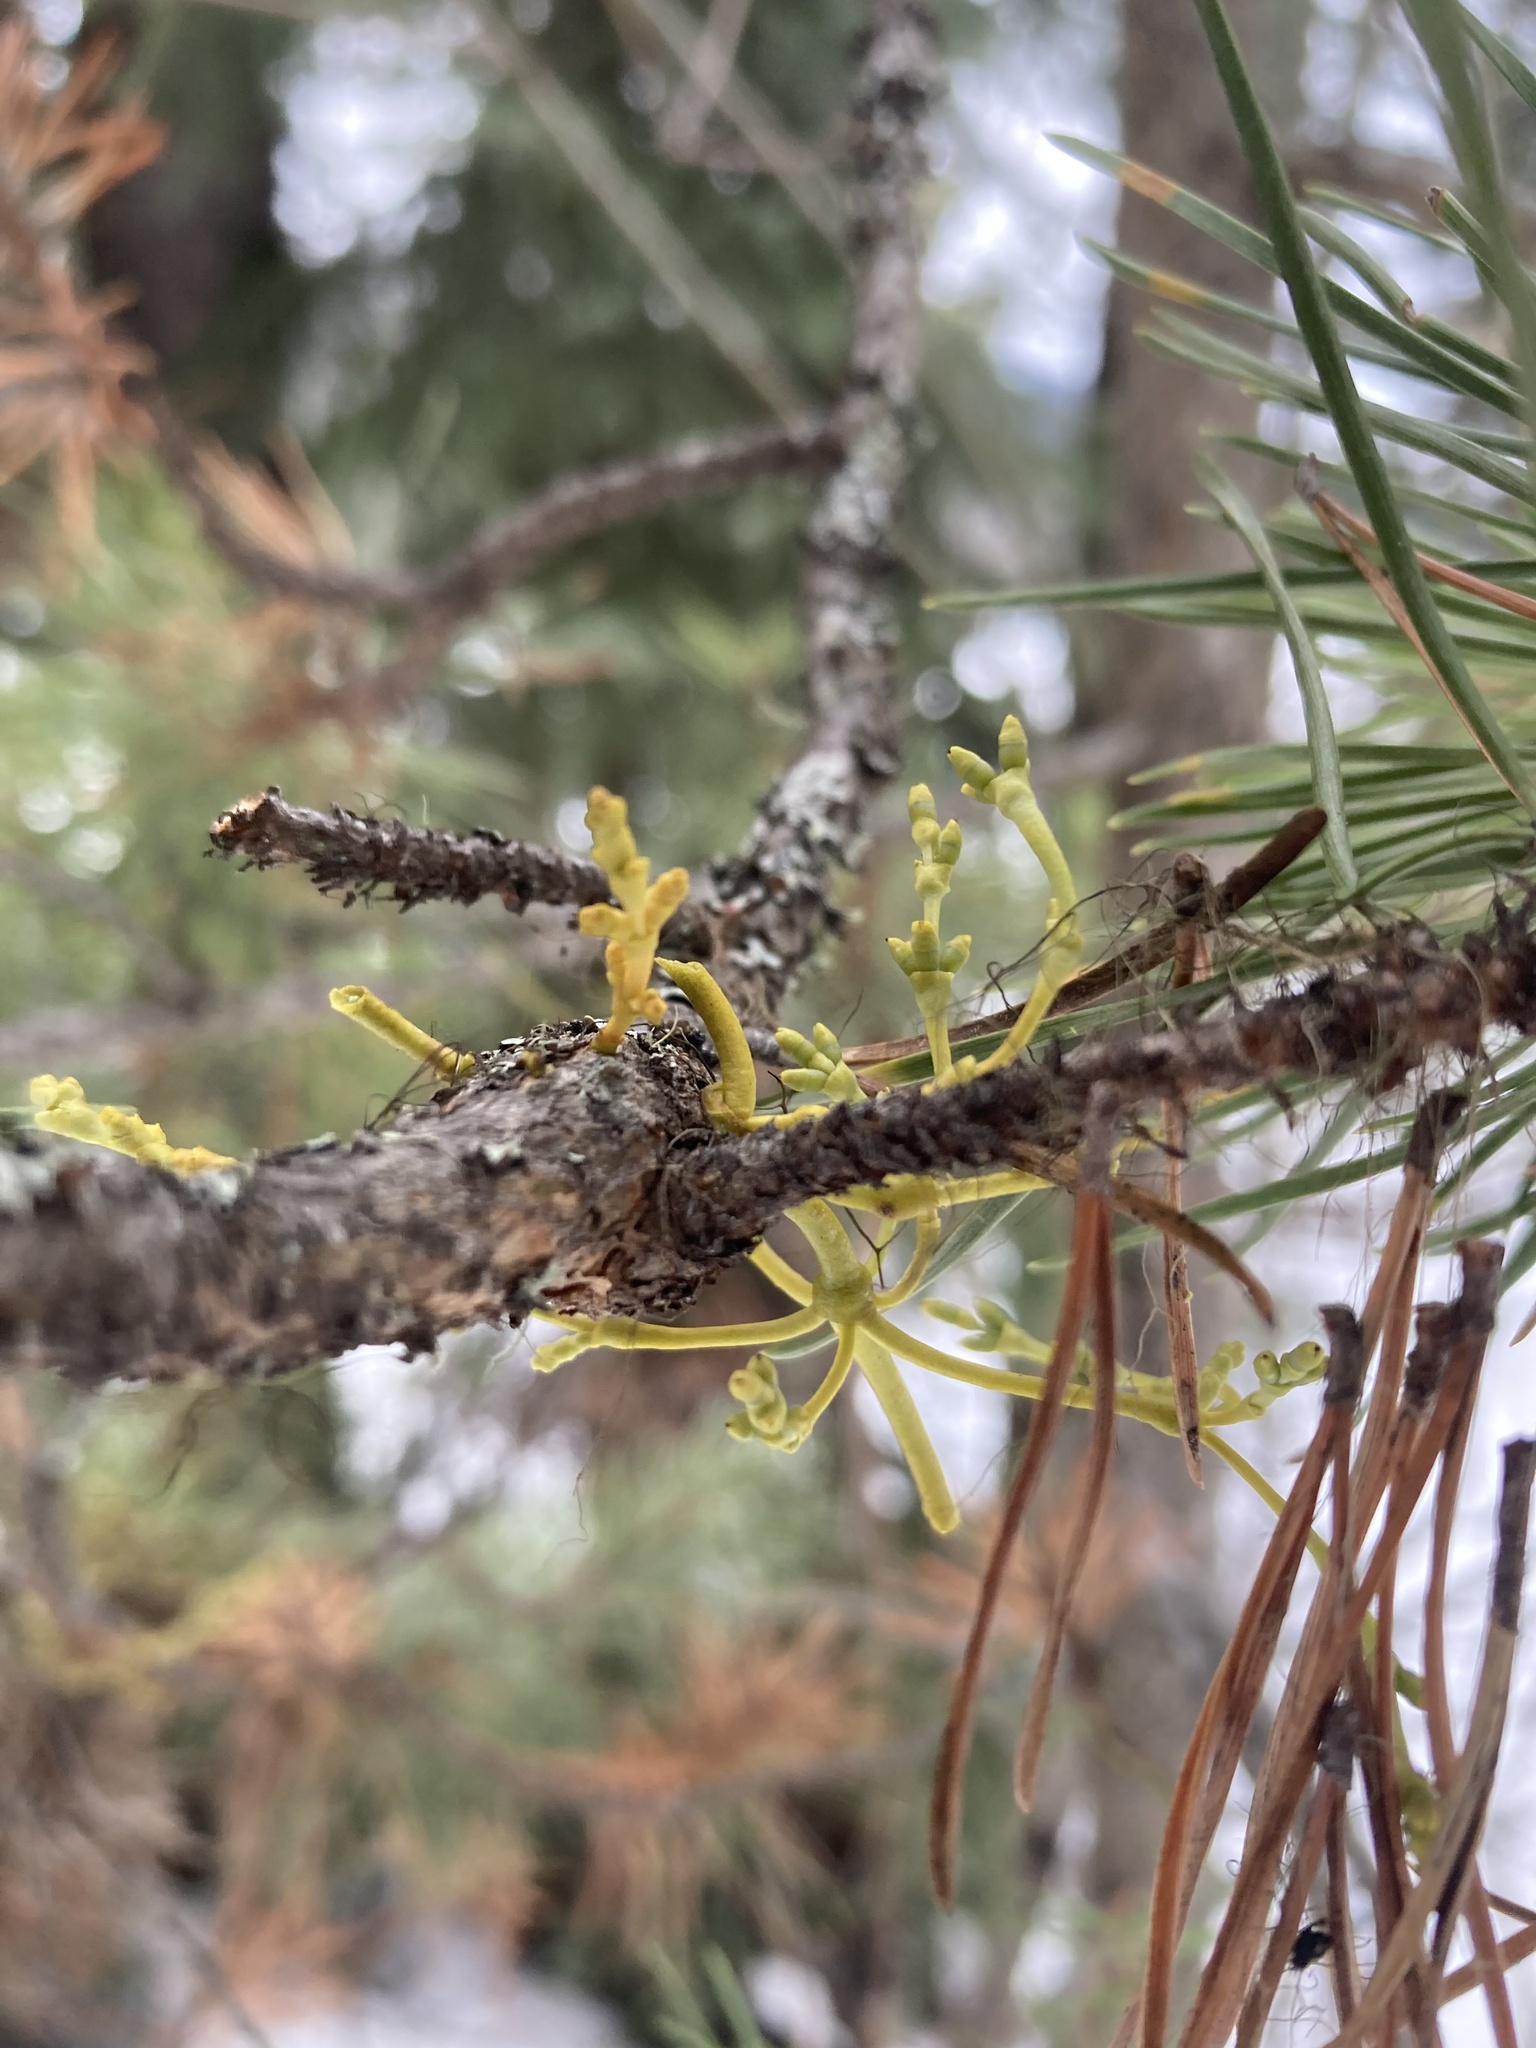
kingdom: Plantae
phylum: Tracheophyta
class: Magnoliopsida
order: Santalales
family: Viscaceae
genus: Arceuthobium
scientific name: Arceuthobium americanum
